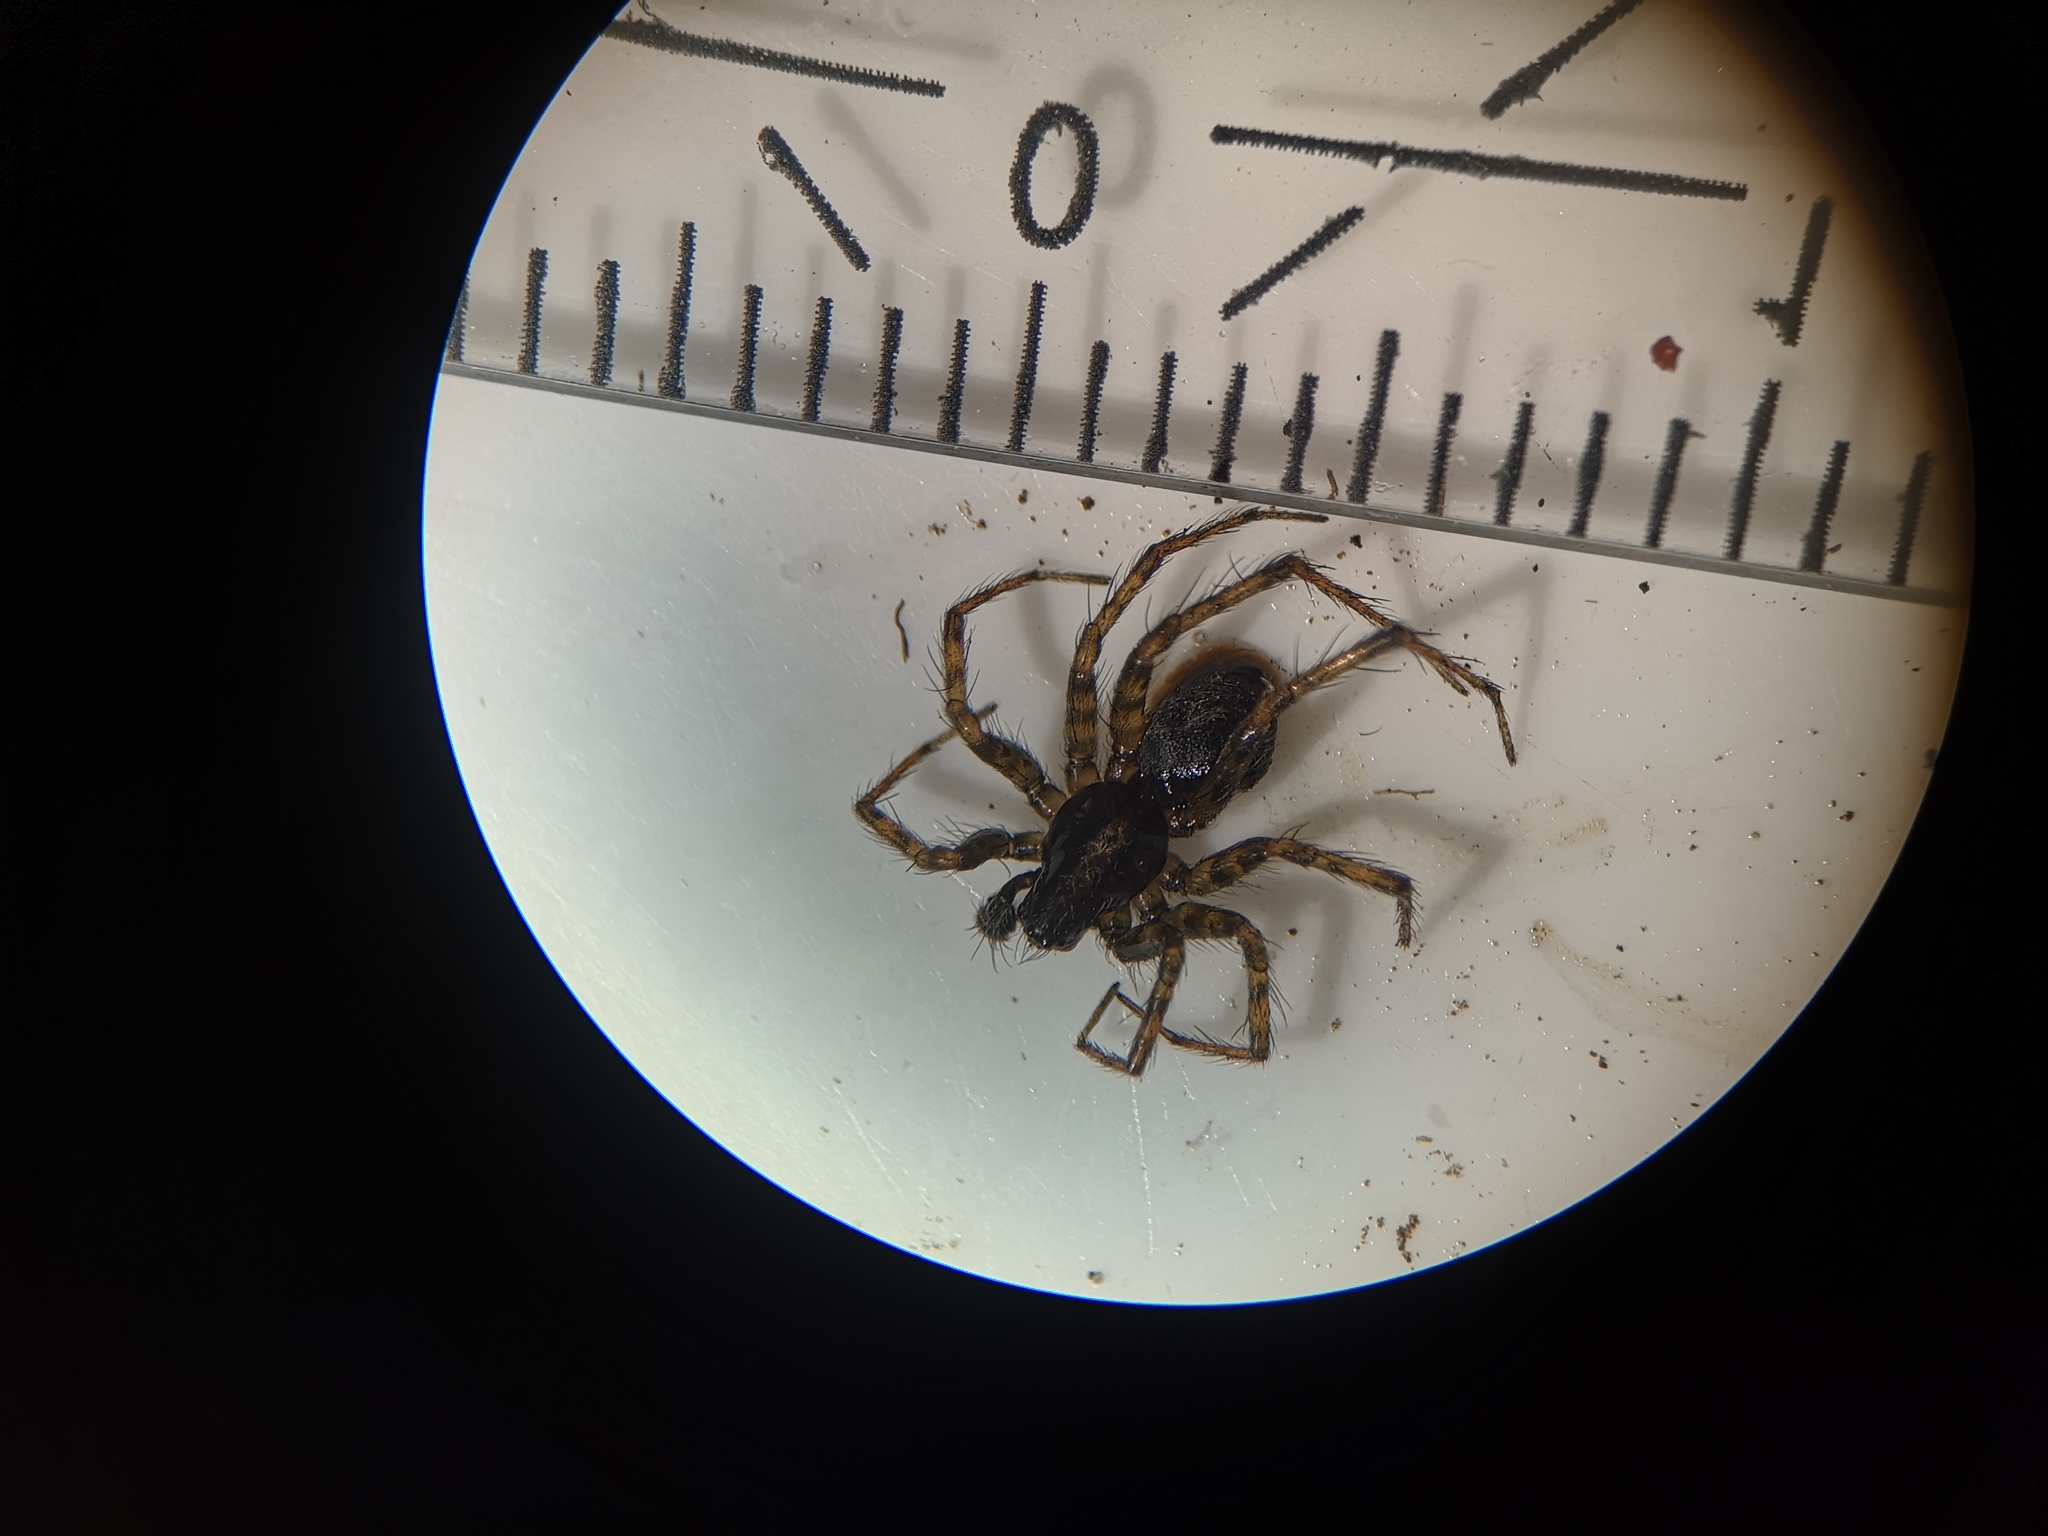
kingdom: Animalia
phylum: Arthropoda
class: Arachnida
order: Araneae
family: Agelenidae
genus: Textrix
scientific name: Textrix denticulata
